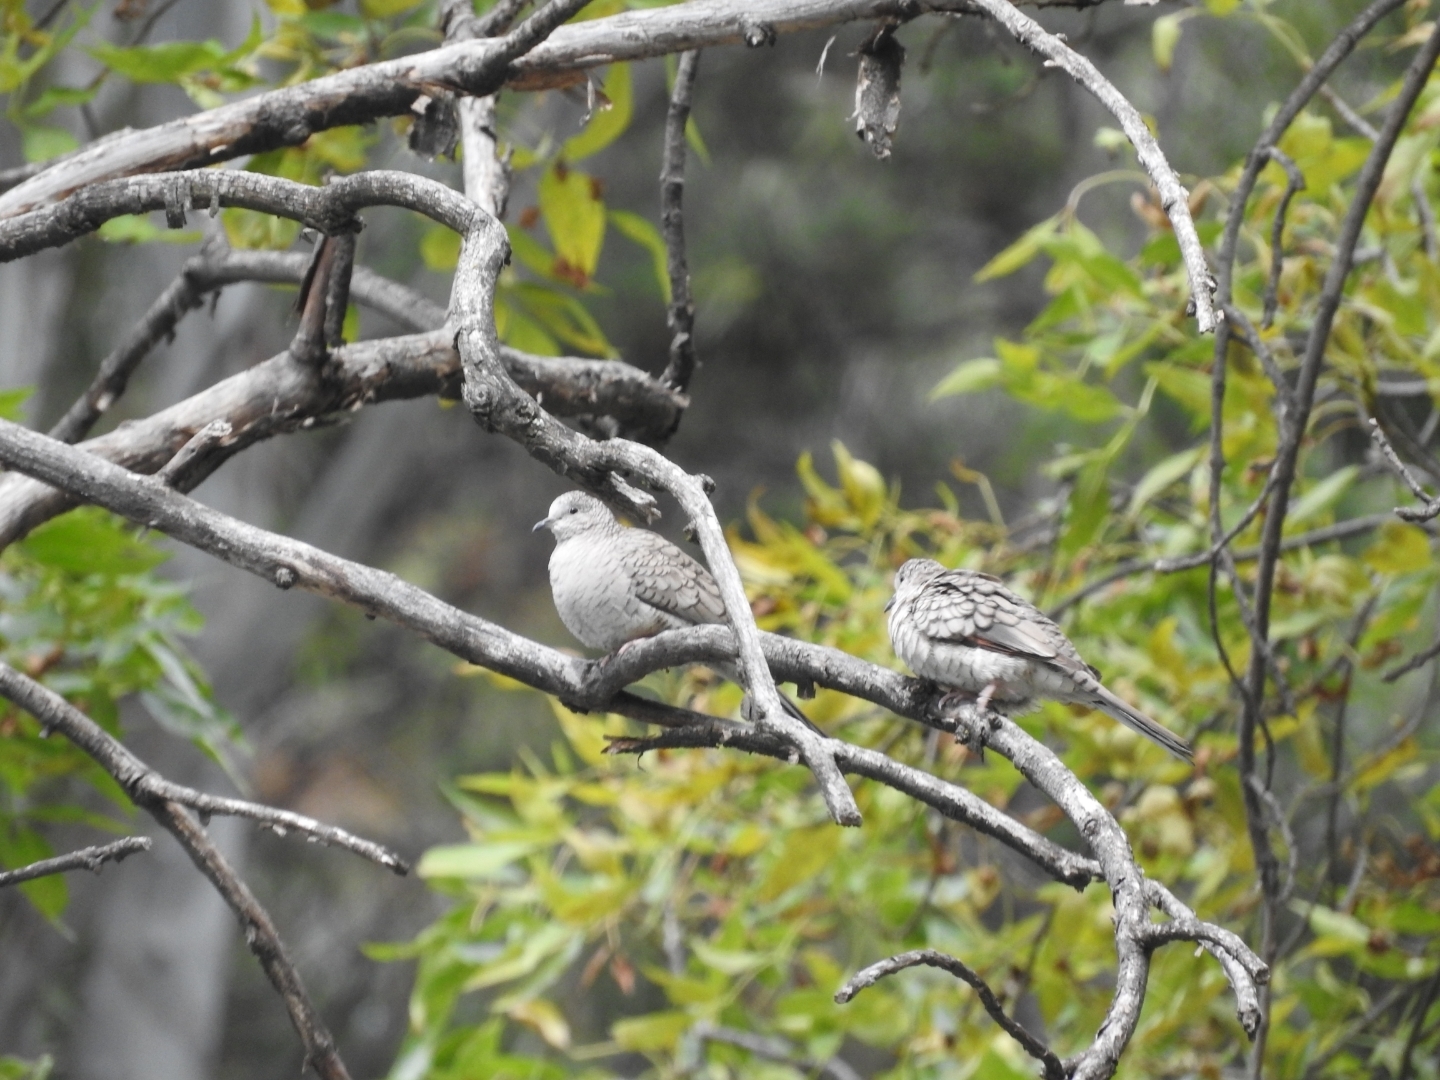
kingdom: Animalia
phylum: Chordata
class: Aves
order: Columbiformes
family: Columbidae
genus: Columbina
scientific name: Columbina inca
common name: Inca dove
